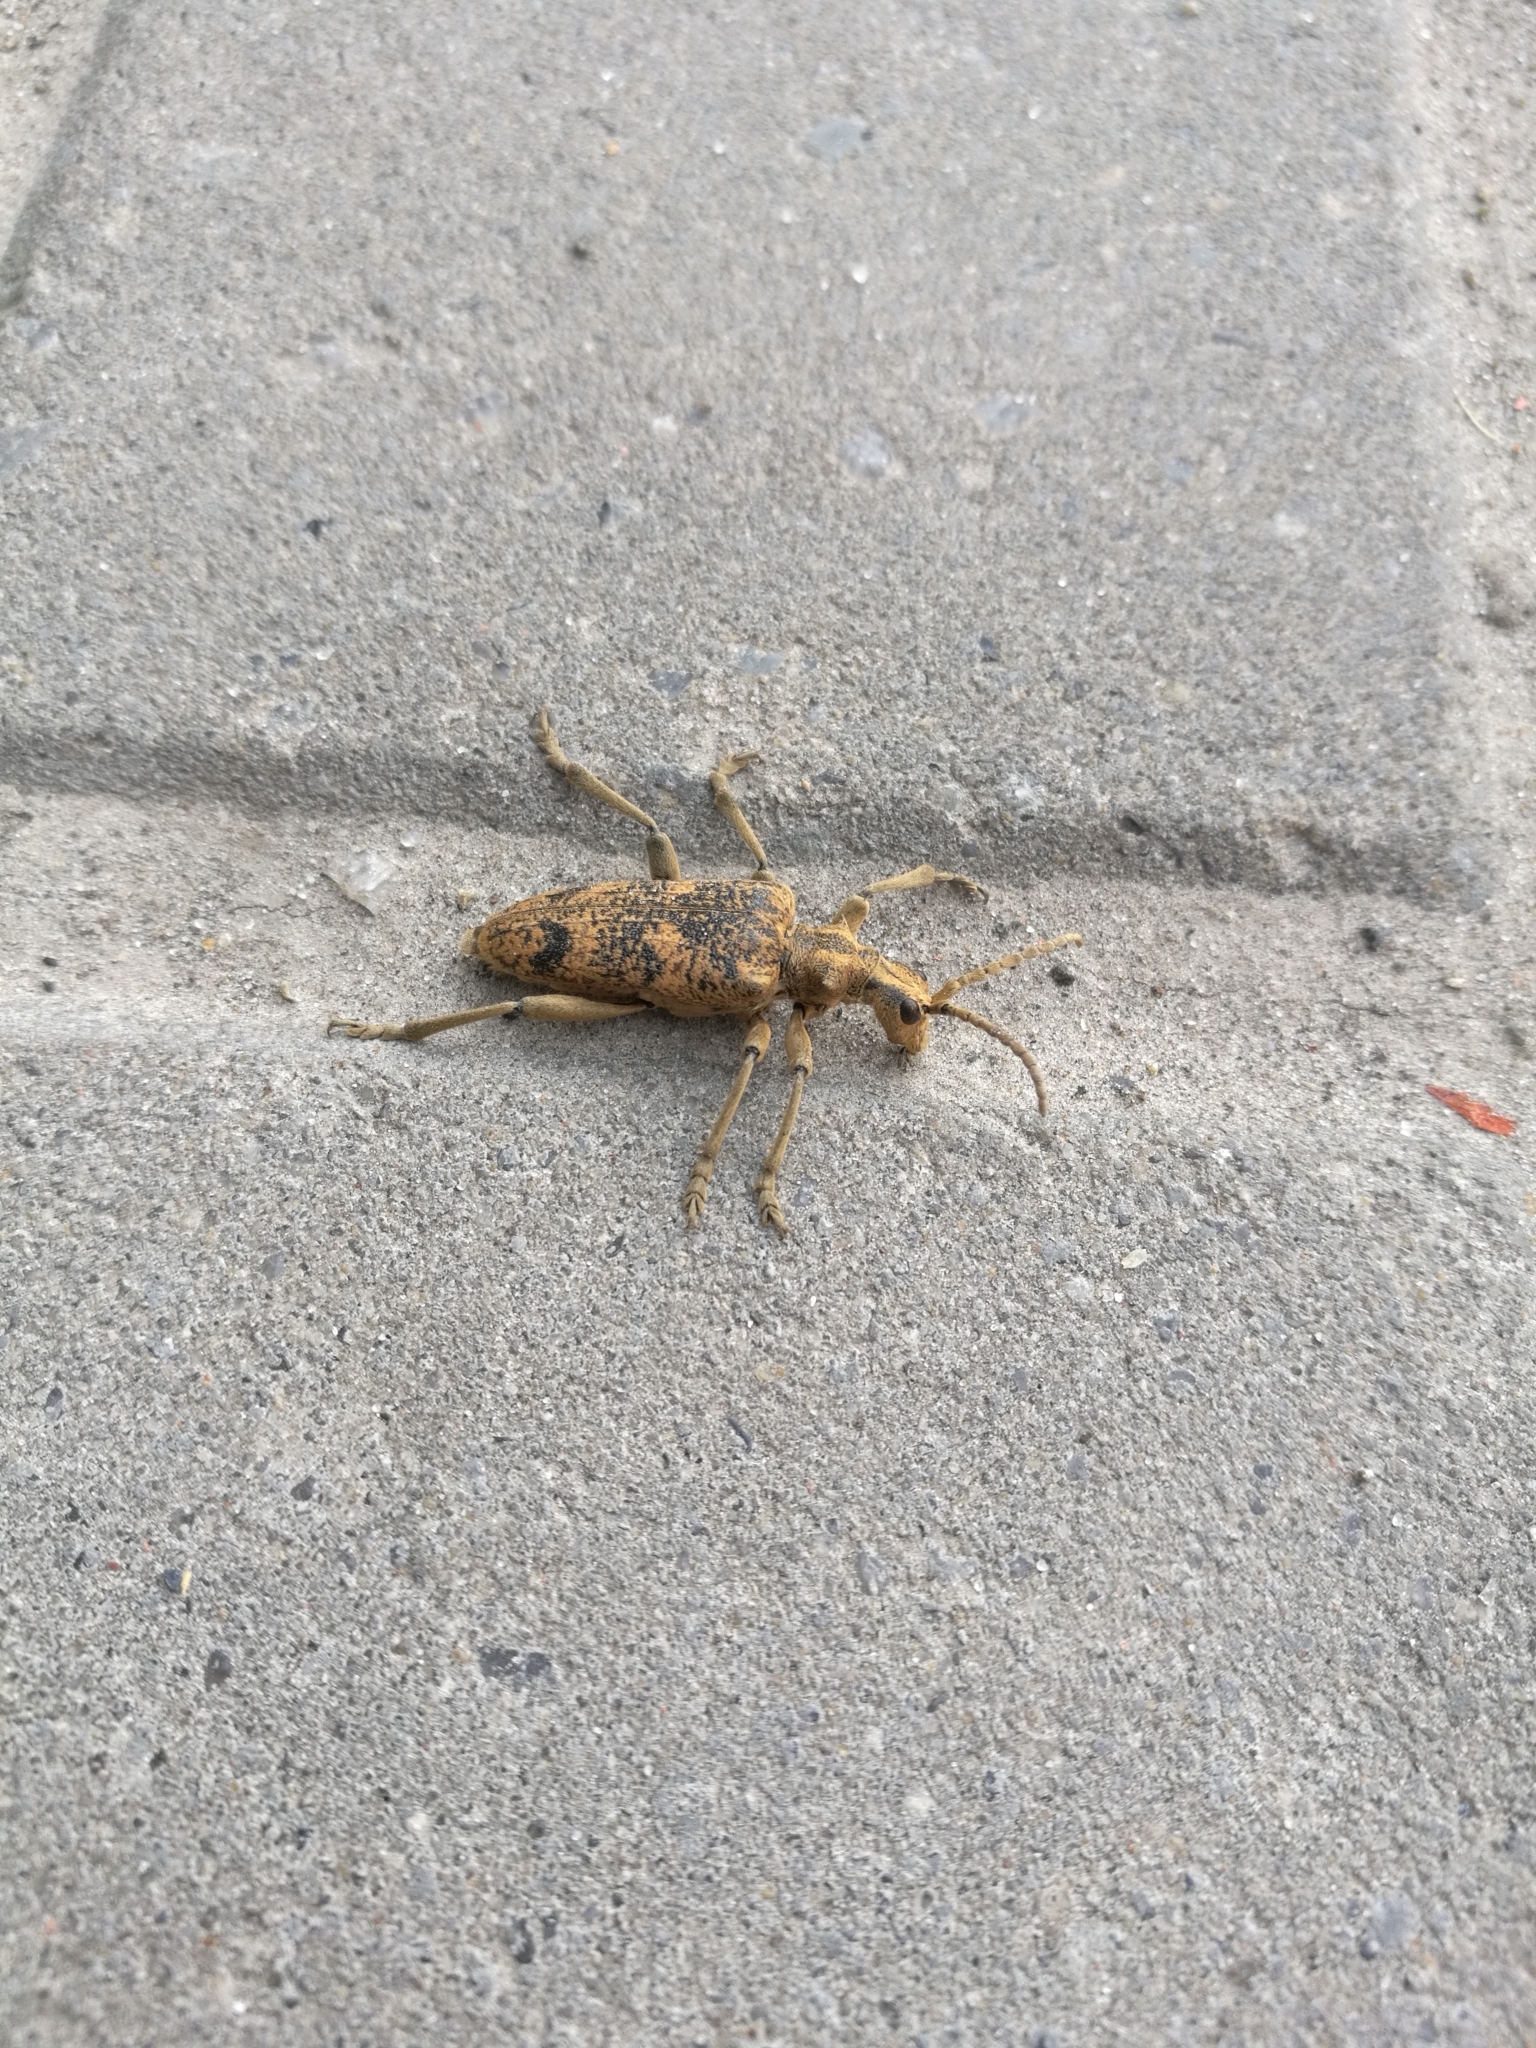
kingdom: Animalia
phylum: Arthropoda
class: Insecta
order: Coleoptera
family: Cerambycidae
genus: Rhagium
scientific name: Rhagium sycophanta
